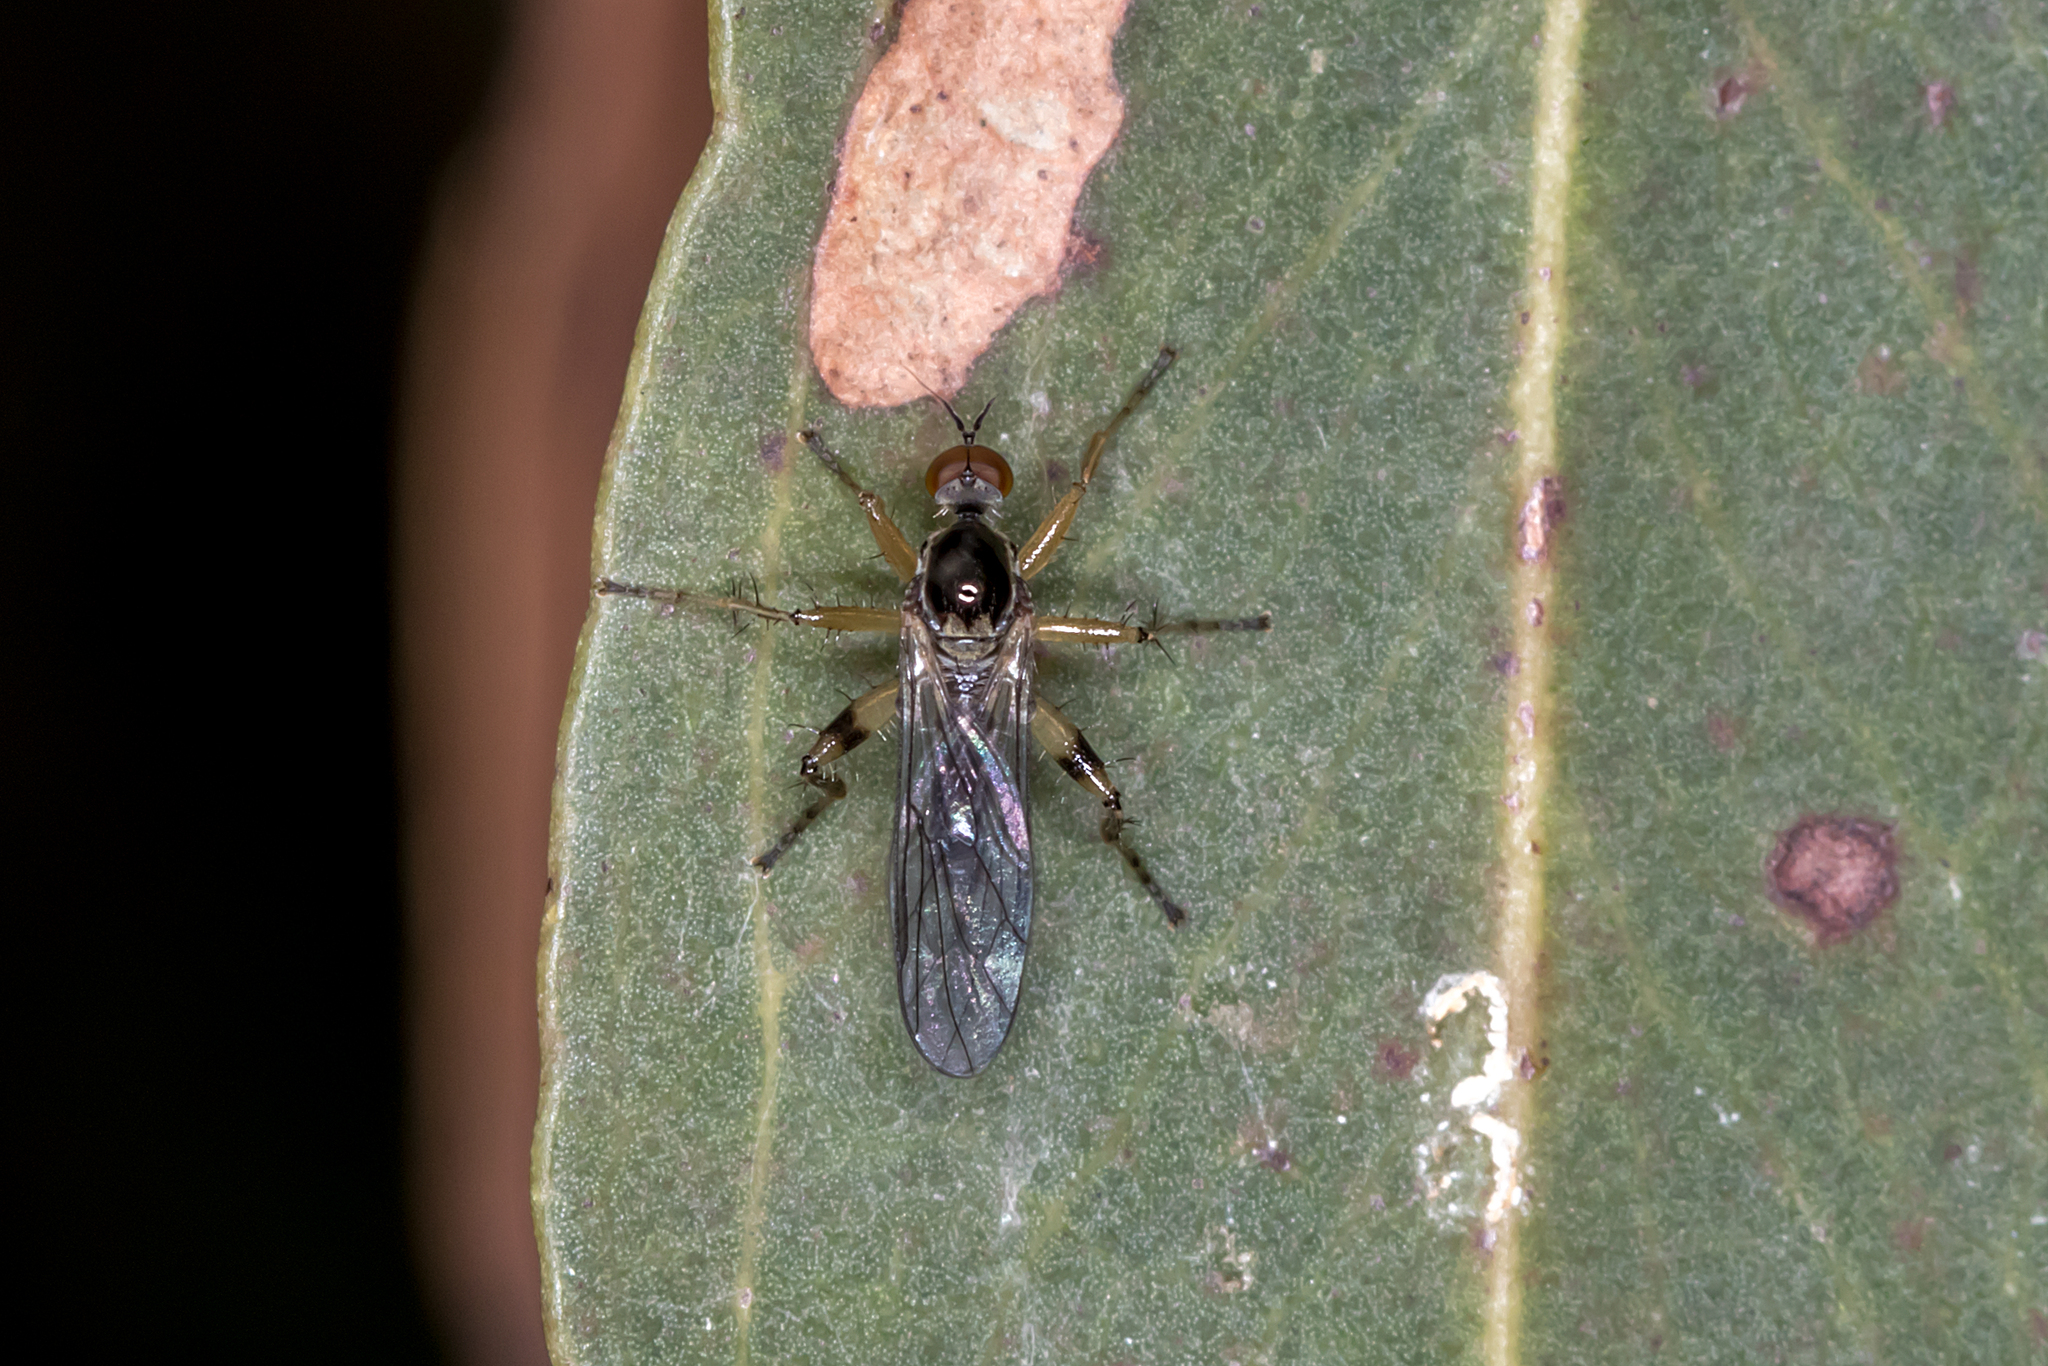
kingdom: Animalia
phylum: Arthropoda
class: Insecta
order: Diptera
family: Hybotidae
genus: Hoplopeza
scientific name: Hoplopeza pulcherrima
